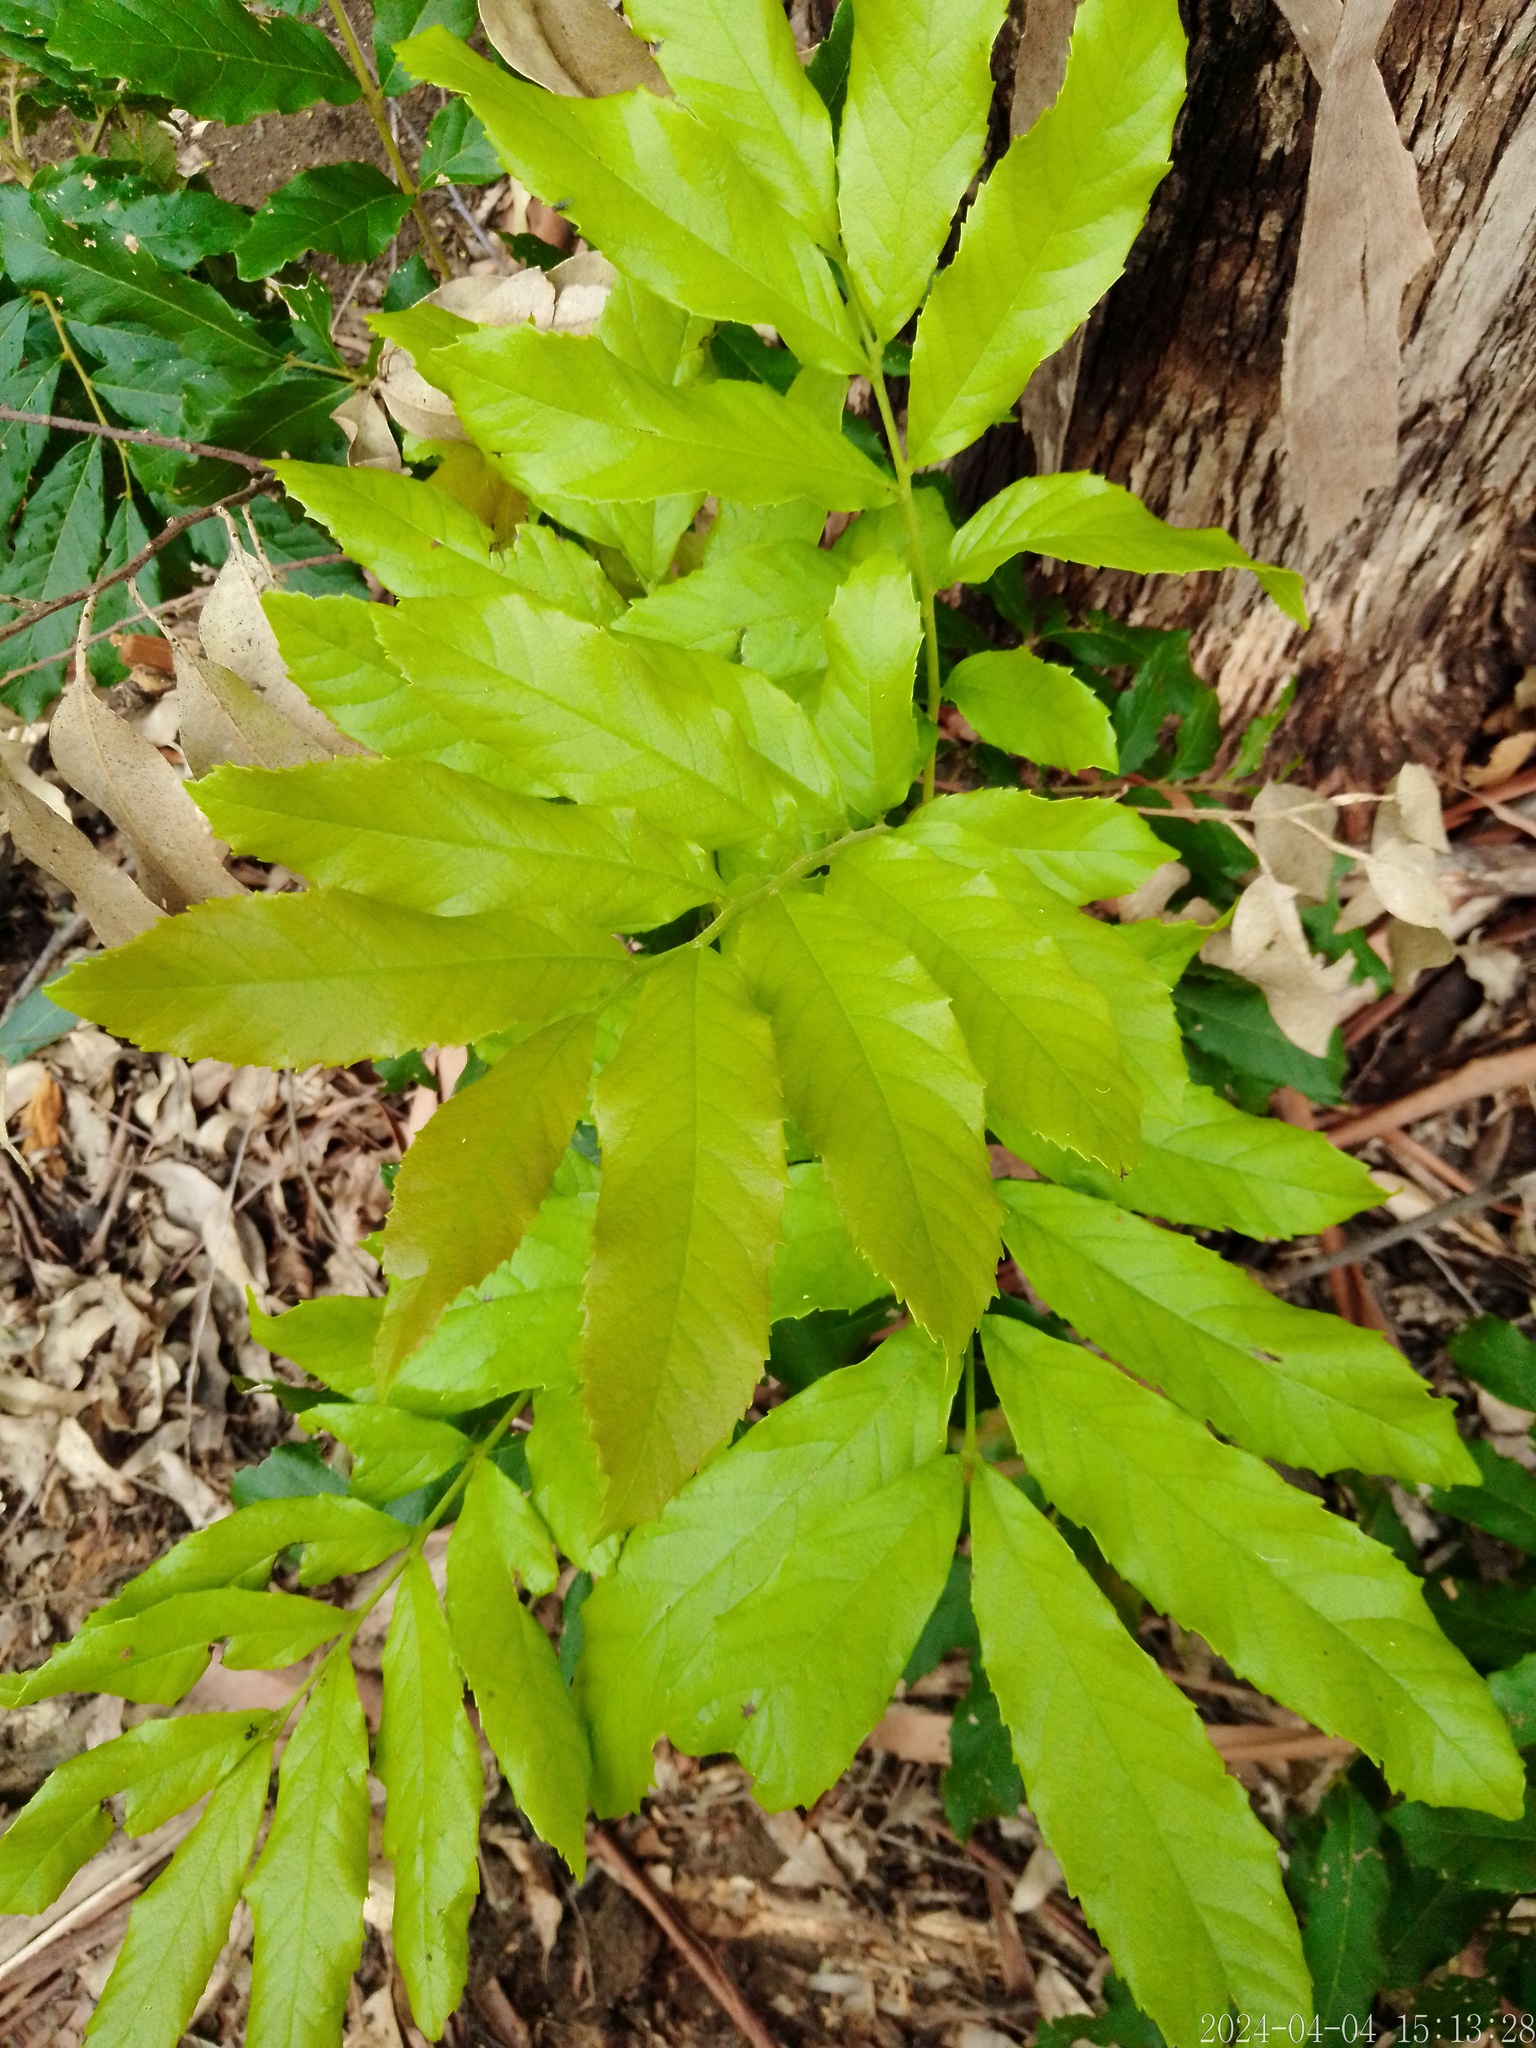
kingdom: Plantae
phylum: Tracheophyta
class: Magnoliopsida
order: Sapindales
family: Sapindaceae
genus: Cupania
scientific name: Cupania vernalis
